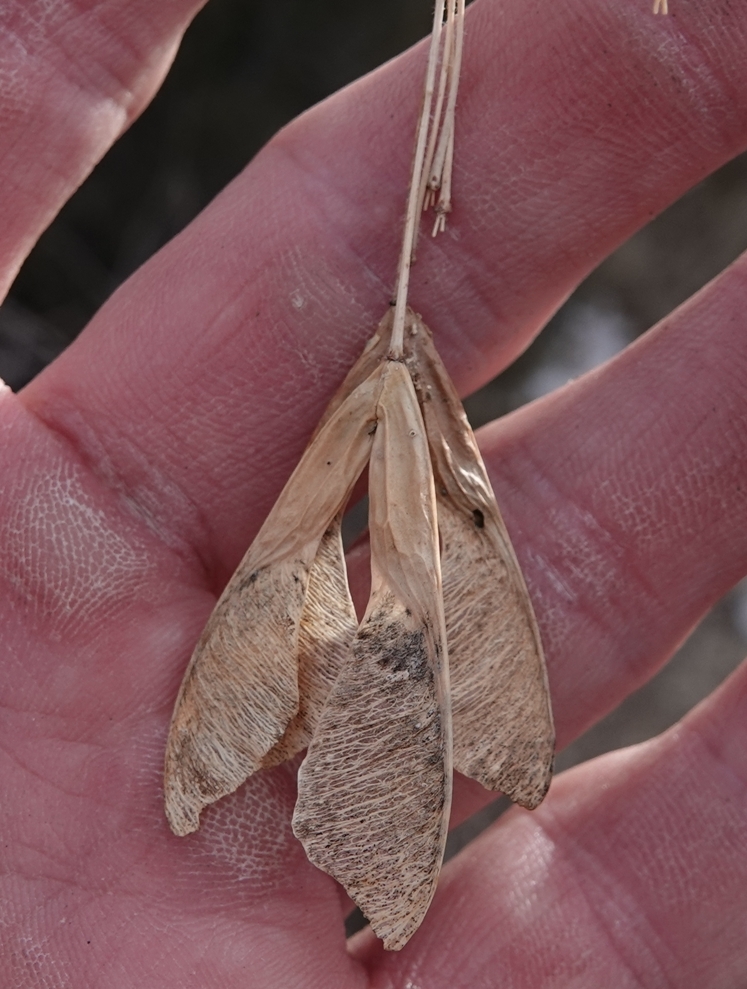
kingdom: Plantae
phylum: Tracheophyta
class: Magnoliopsida
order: Sapindales
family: Sapindaceae
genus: Acer
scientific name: Acer negundo
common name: Ashleaf maple
